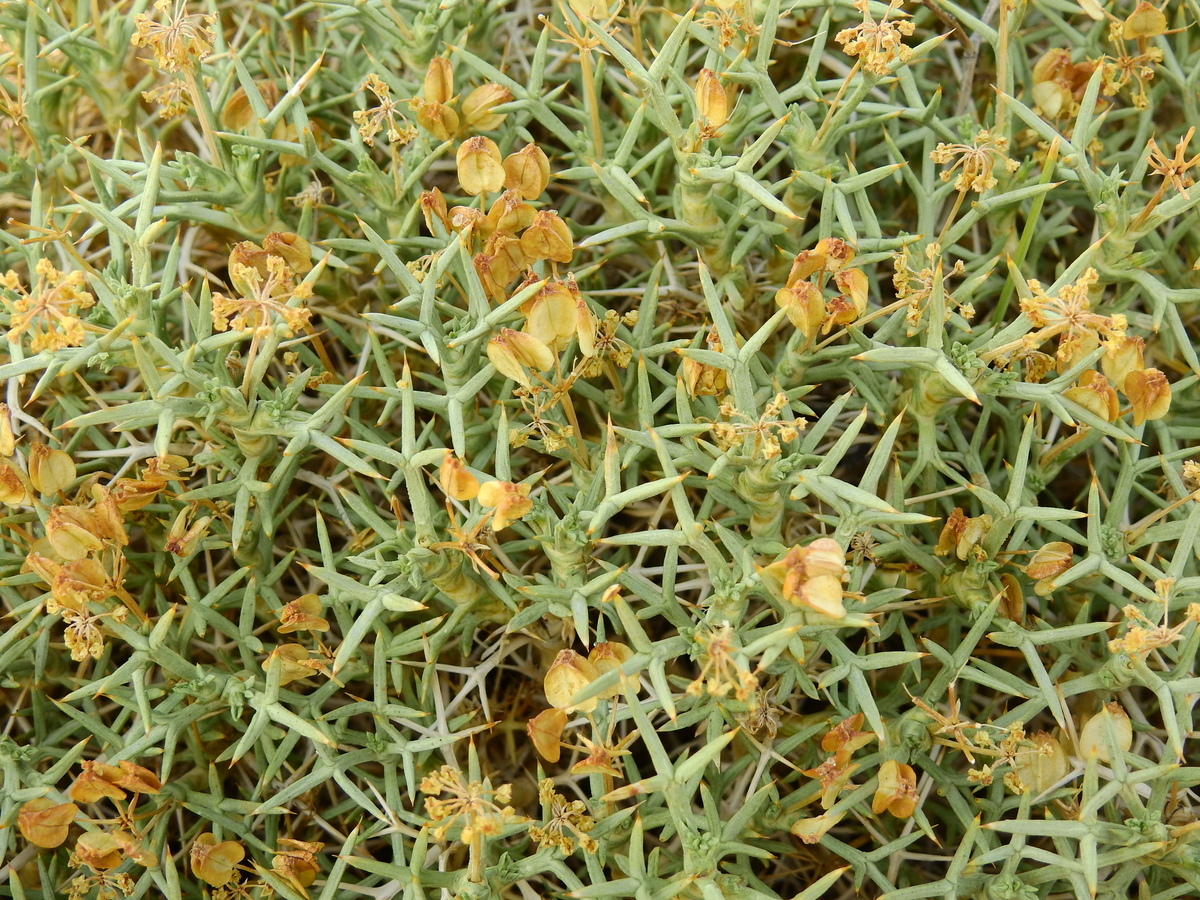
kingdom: Plantae
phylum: Tracheophyta
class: Magnoliopsida
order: Apiales
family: Apiaceae
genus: Azorella
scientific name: Azorella prolifera
